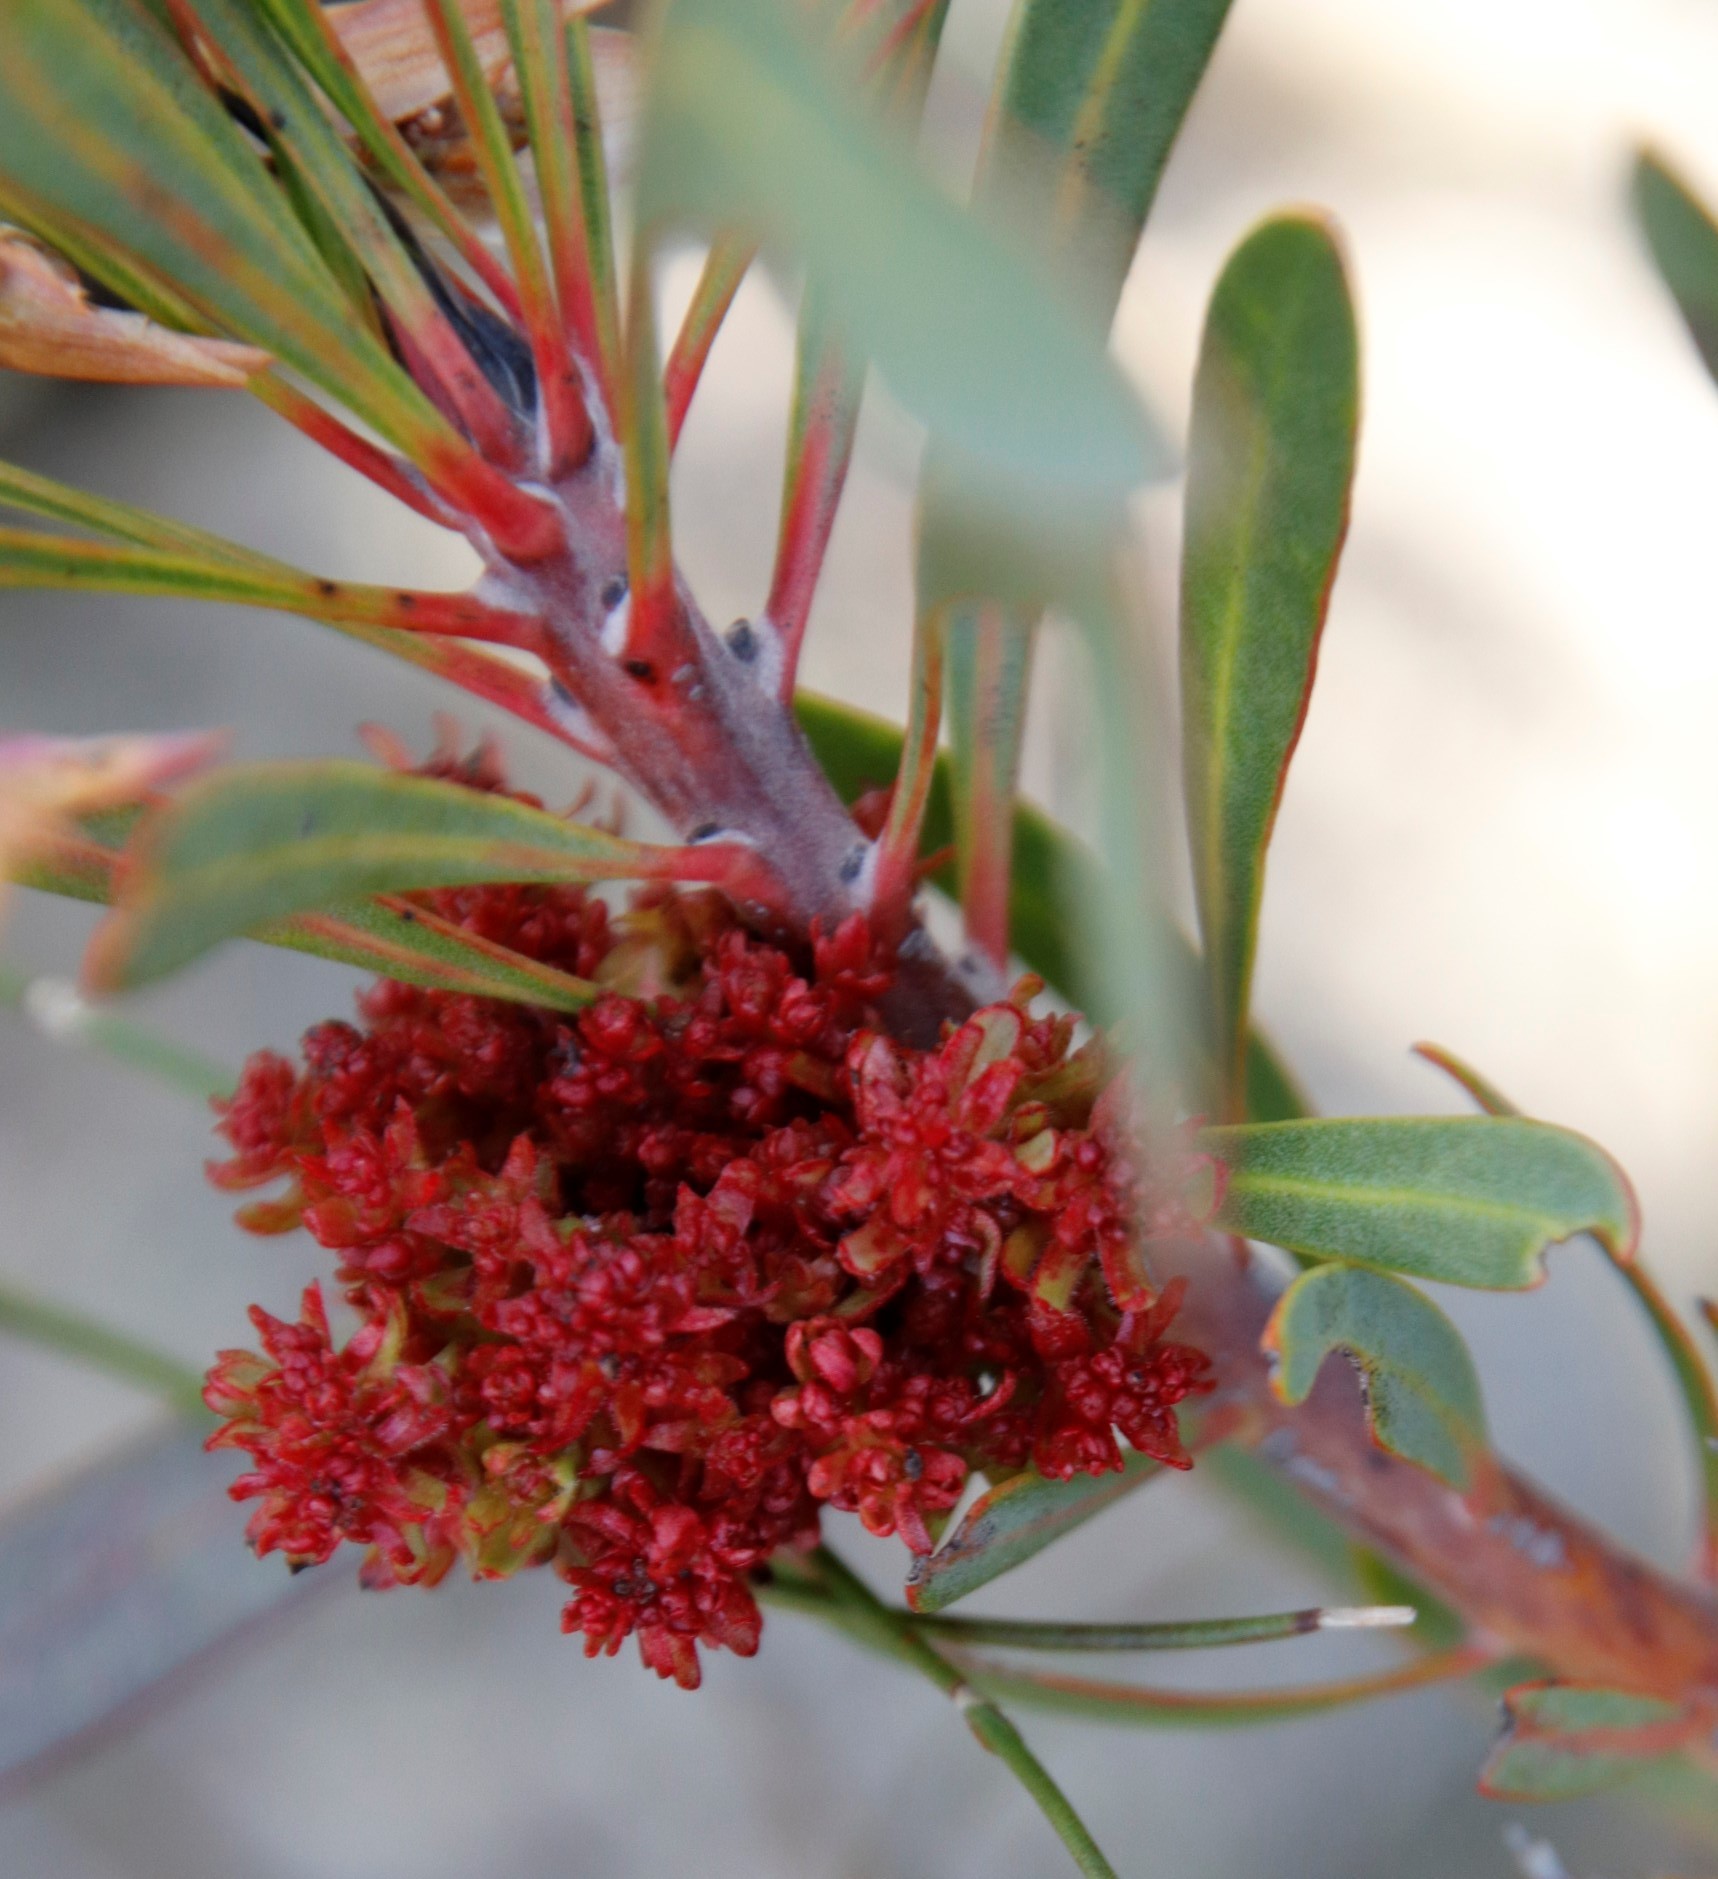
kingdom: Bacteria
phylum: Firmicutes
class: Bacilli
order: Acholeplasmatales
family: Acholeplasmataceae
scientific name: Acholeplasmataceae
